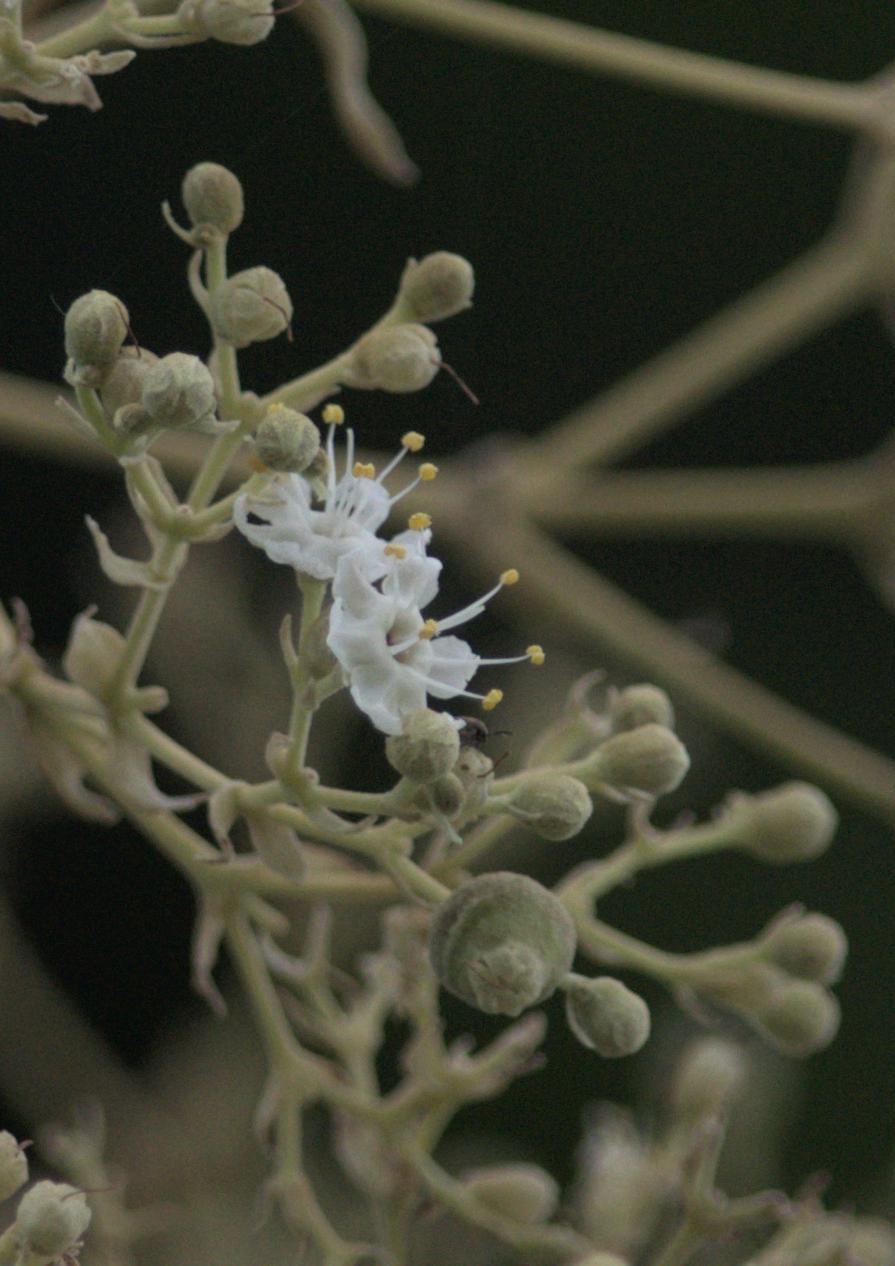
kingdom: Plantae
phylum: Tracheophyta
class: Magnoliopsida
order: Lamiales
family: Lamiaceae
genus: Tectona
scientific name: Tectona grandis
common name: Teak
